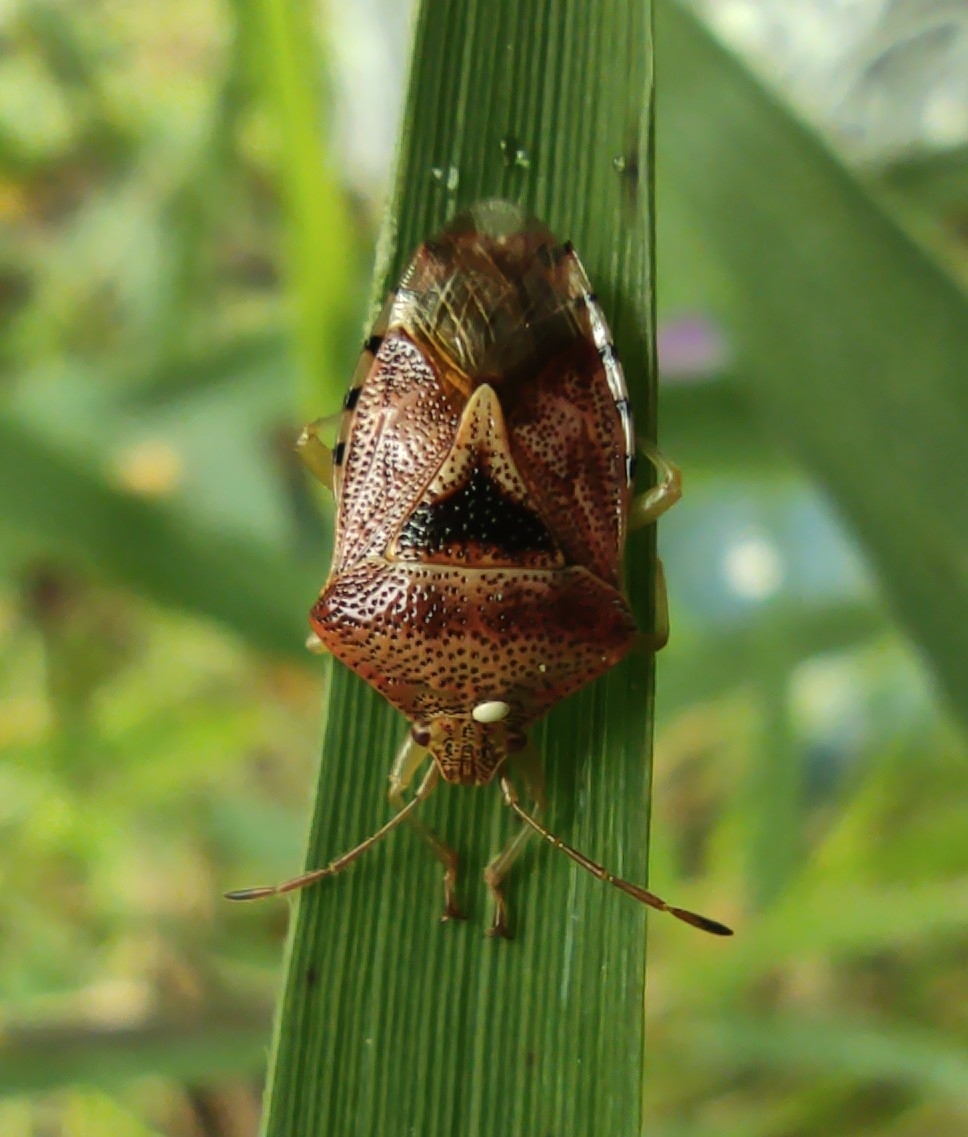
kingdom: Animalia
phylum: Arthropoda
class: Insecta
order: Hemiptera
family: Acanthosomatidae
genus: Elasmucha
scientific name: Elasmucha grisea
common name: Parent bug
